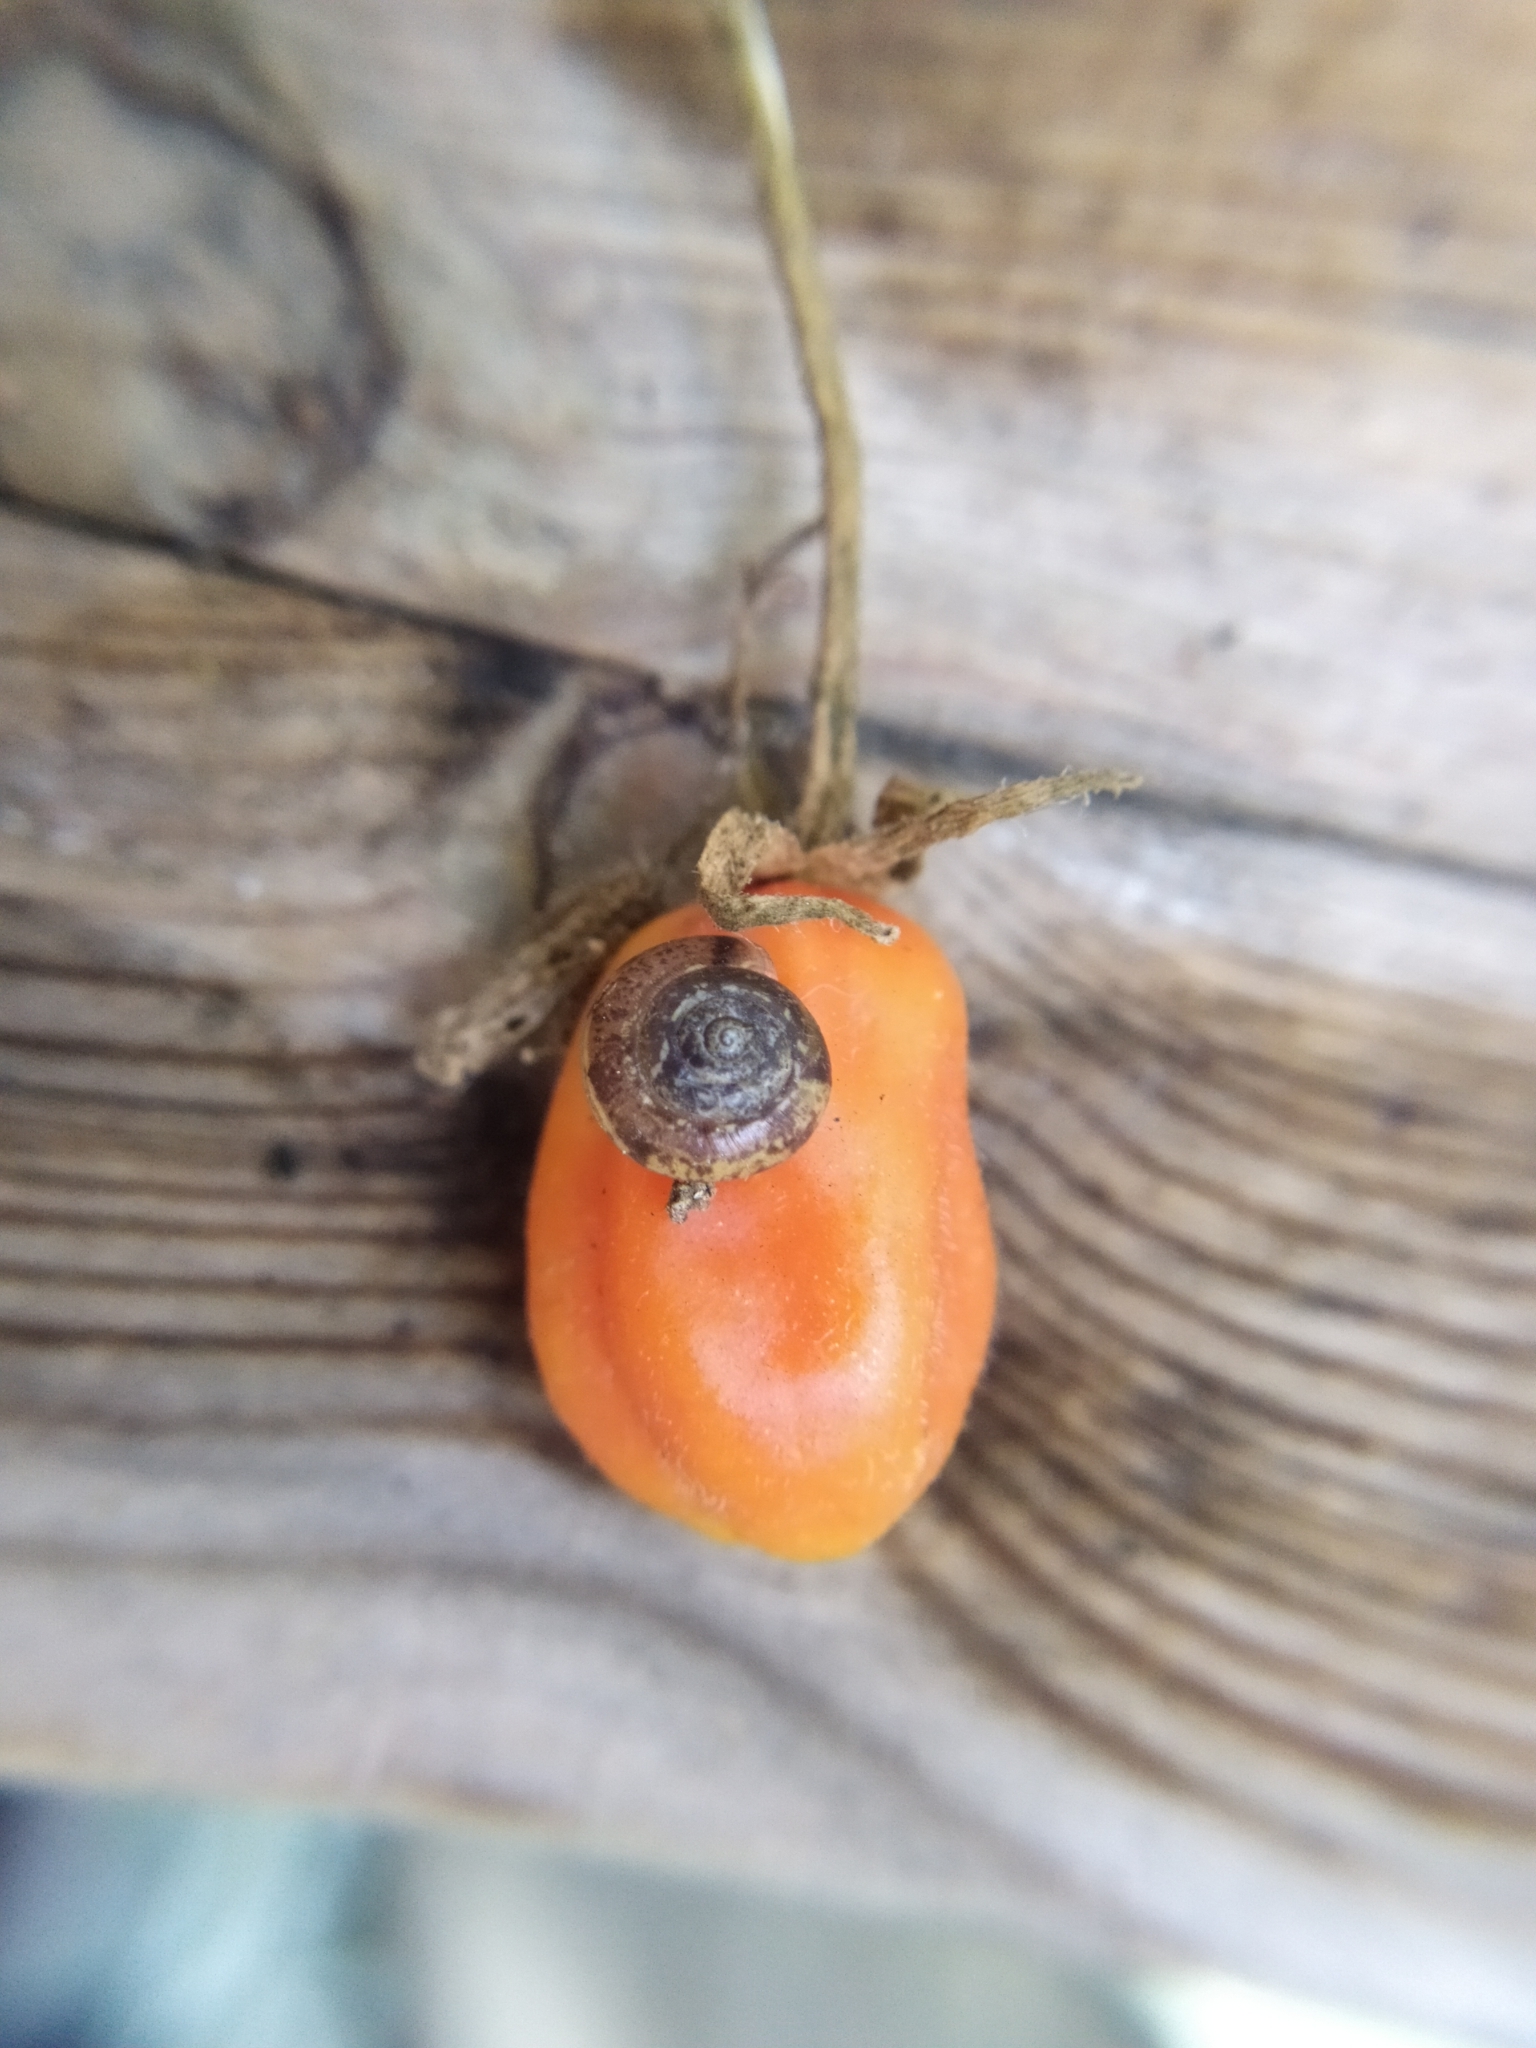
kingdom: Animalia
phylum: Mollusca
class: Gastropoda
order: Stylommatophora
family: Hygromiidae
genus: Hygromia
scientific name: Hygromia cinctella
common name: Girdled snail
